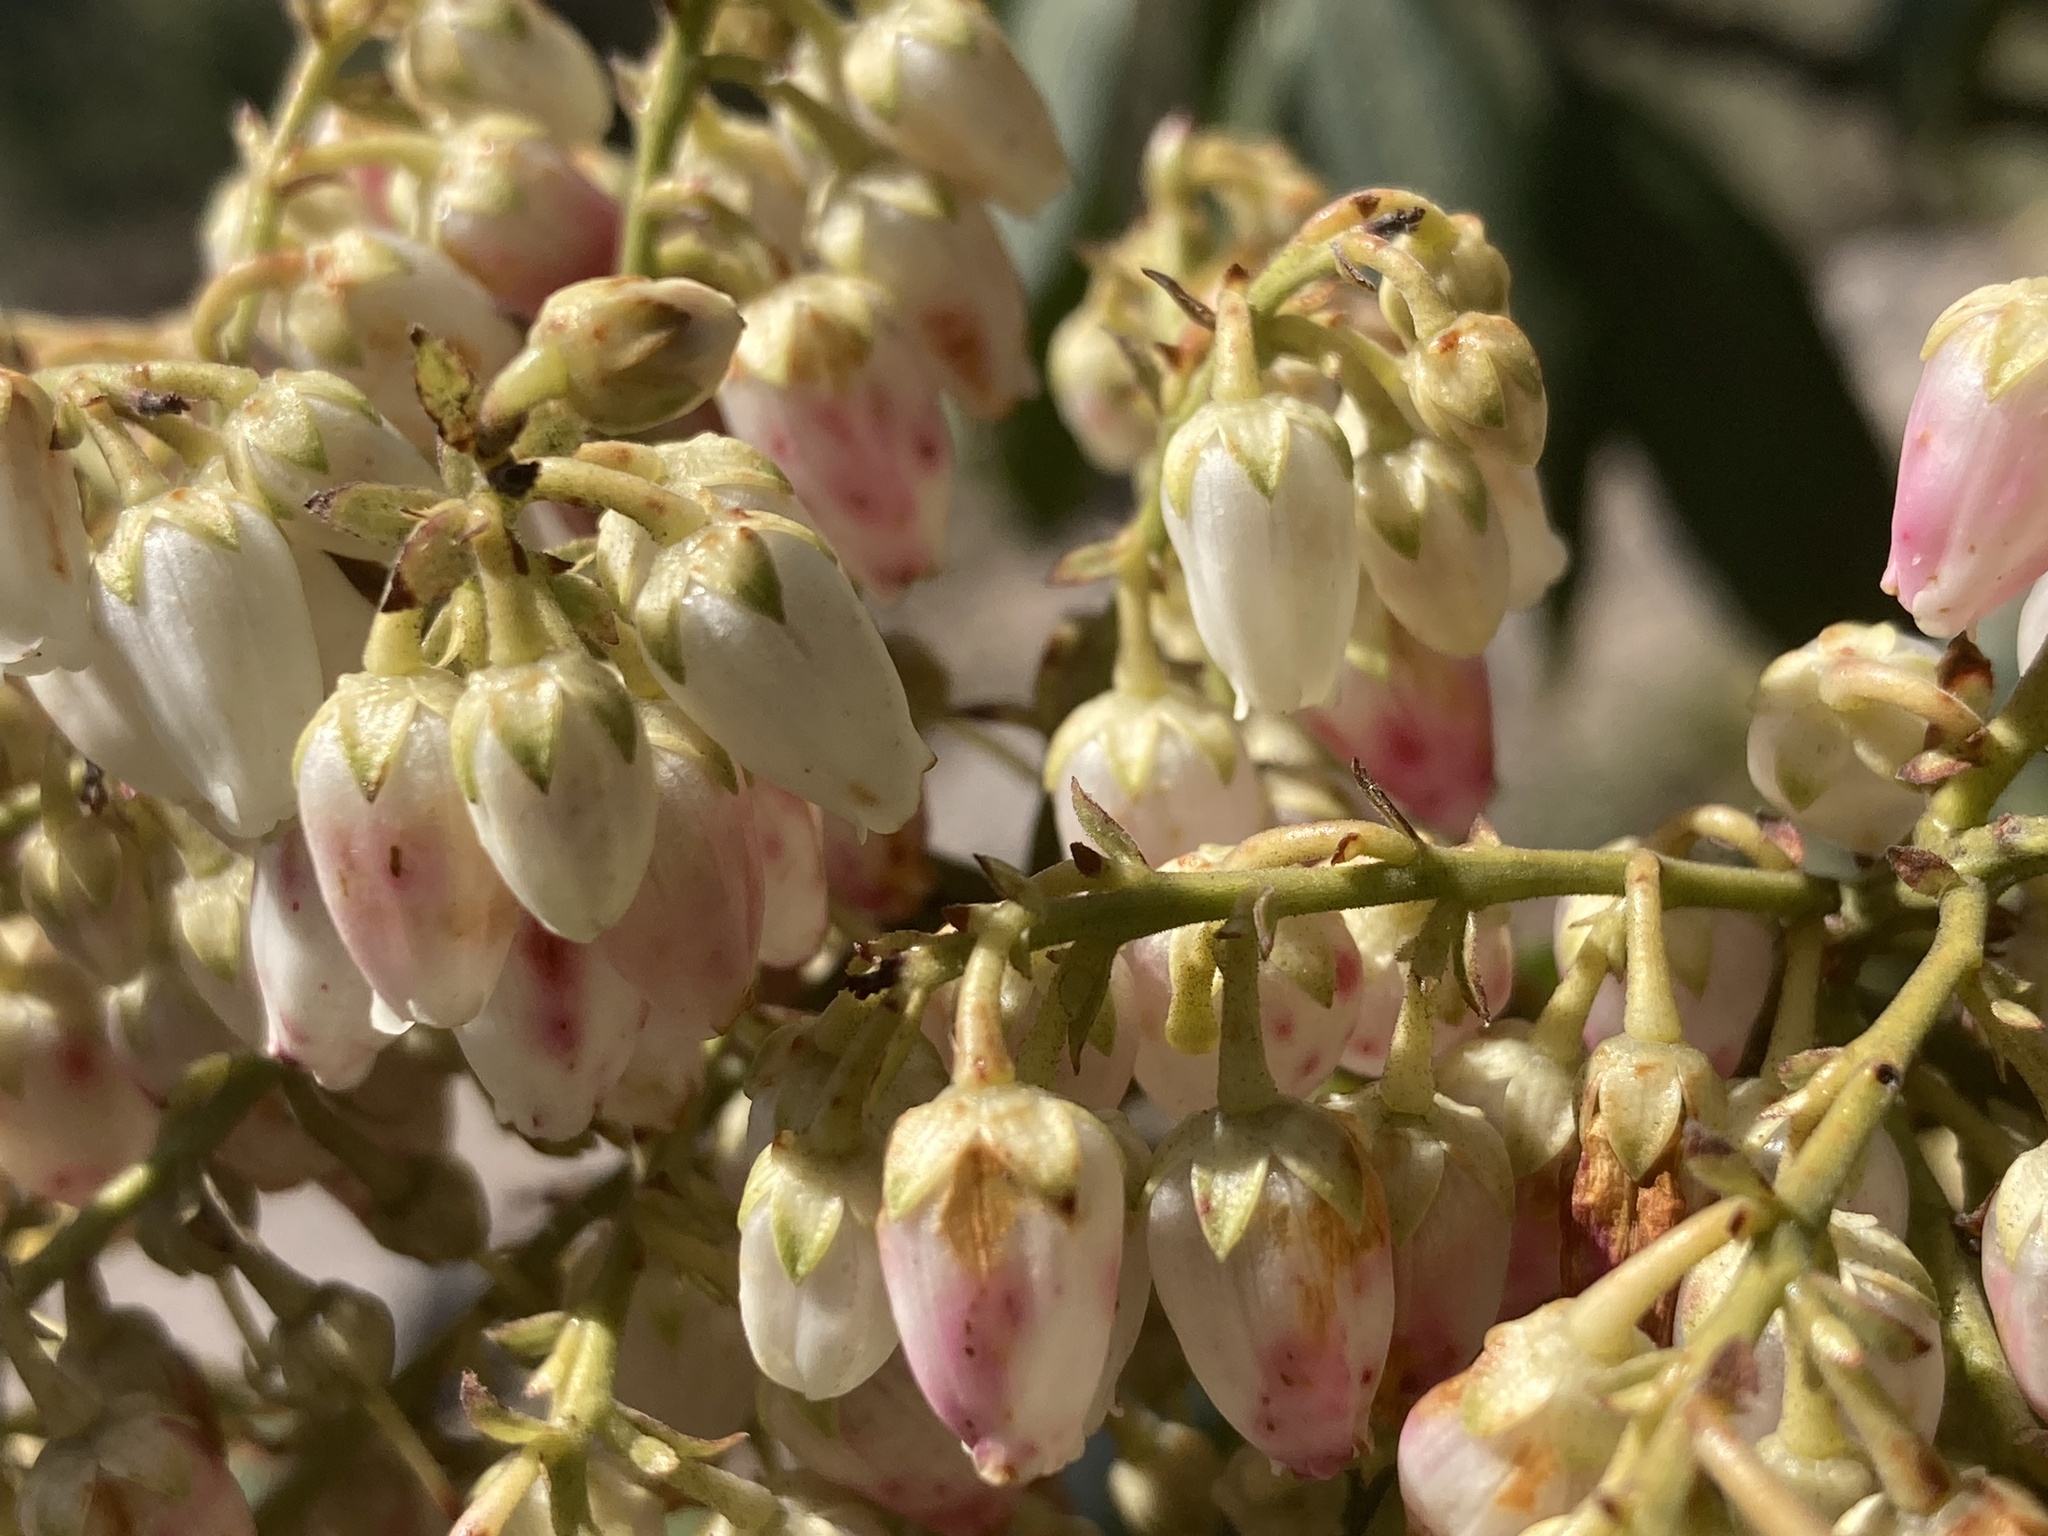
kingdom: Plantae
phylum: Tracheophyta
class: Magnoliopsida
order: Ericales
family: Ericaceae
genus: Pieris
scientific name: Pieris formosa
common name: Formosan pieris
